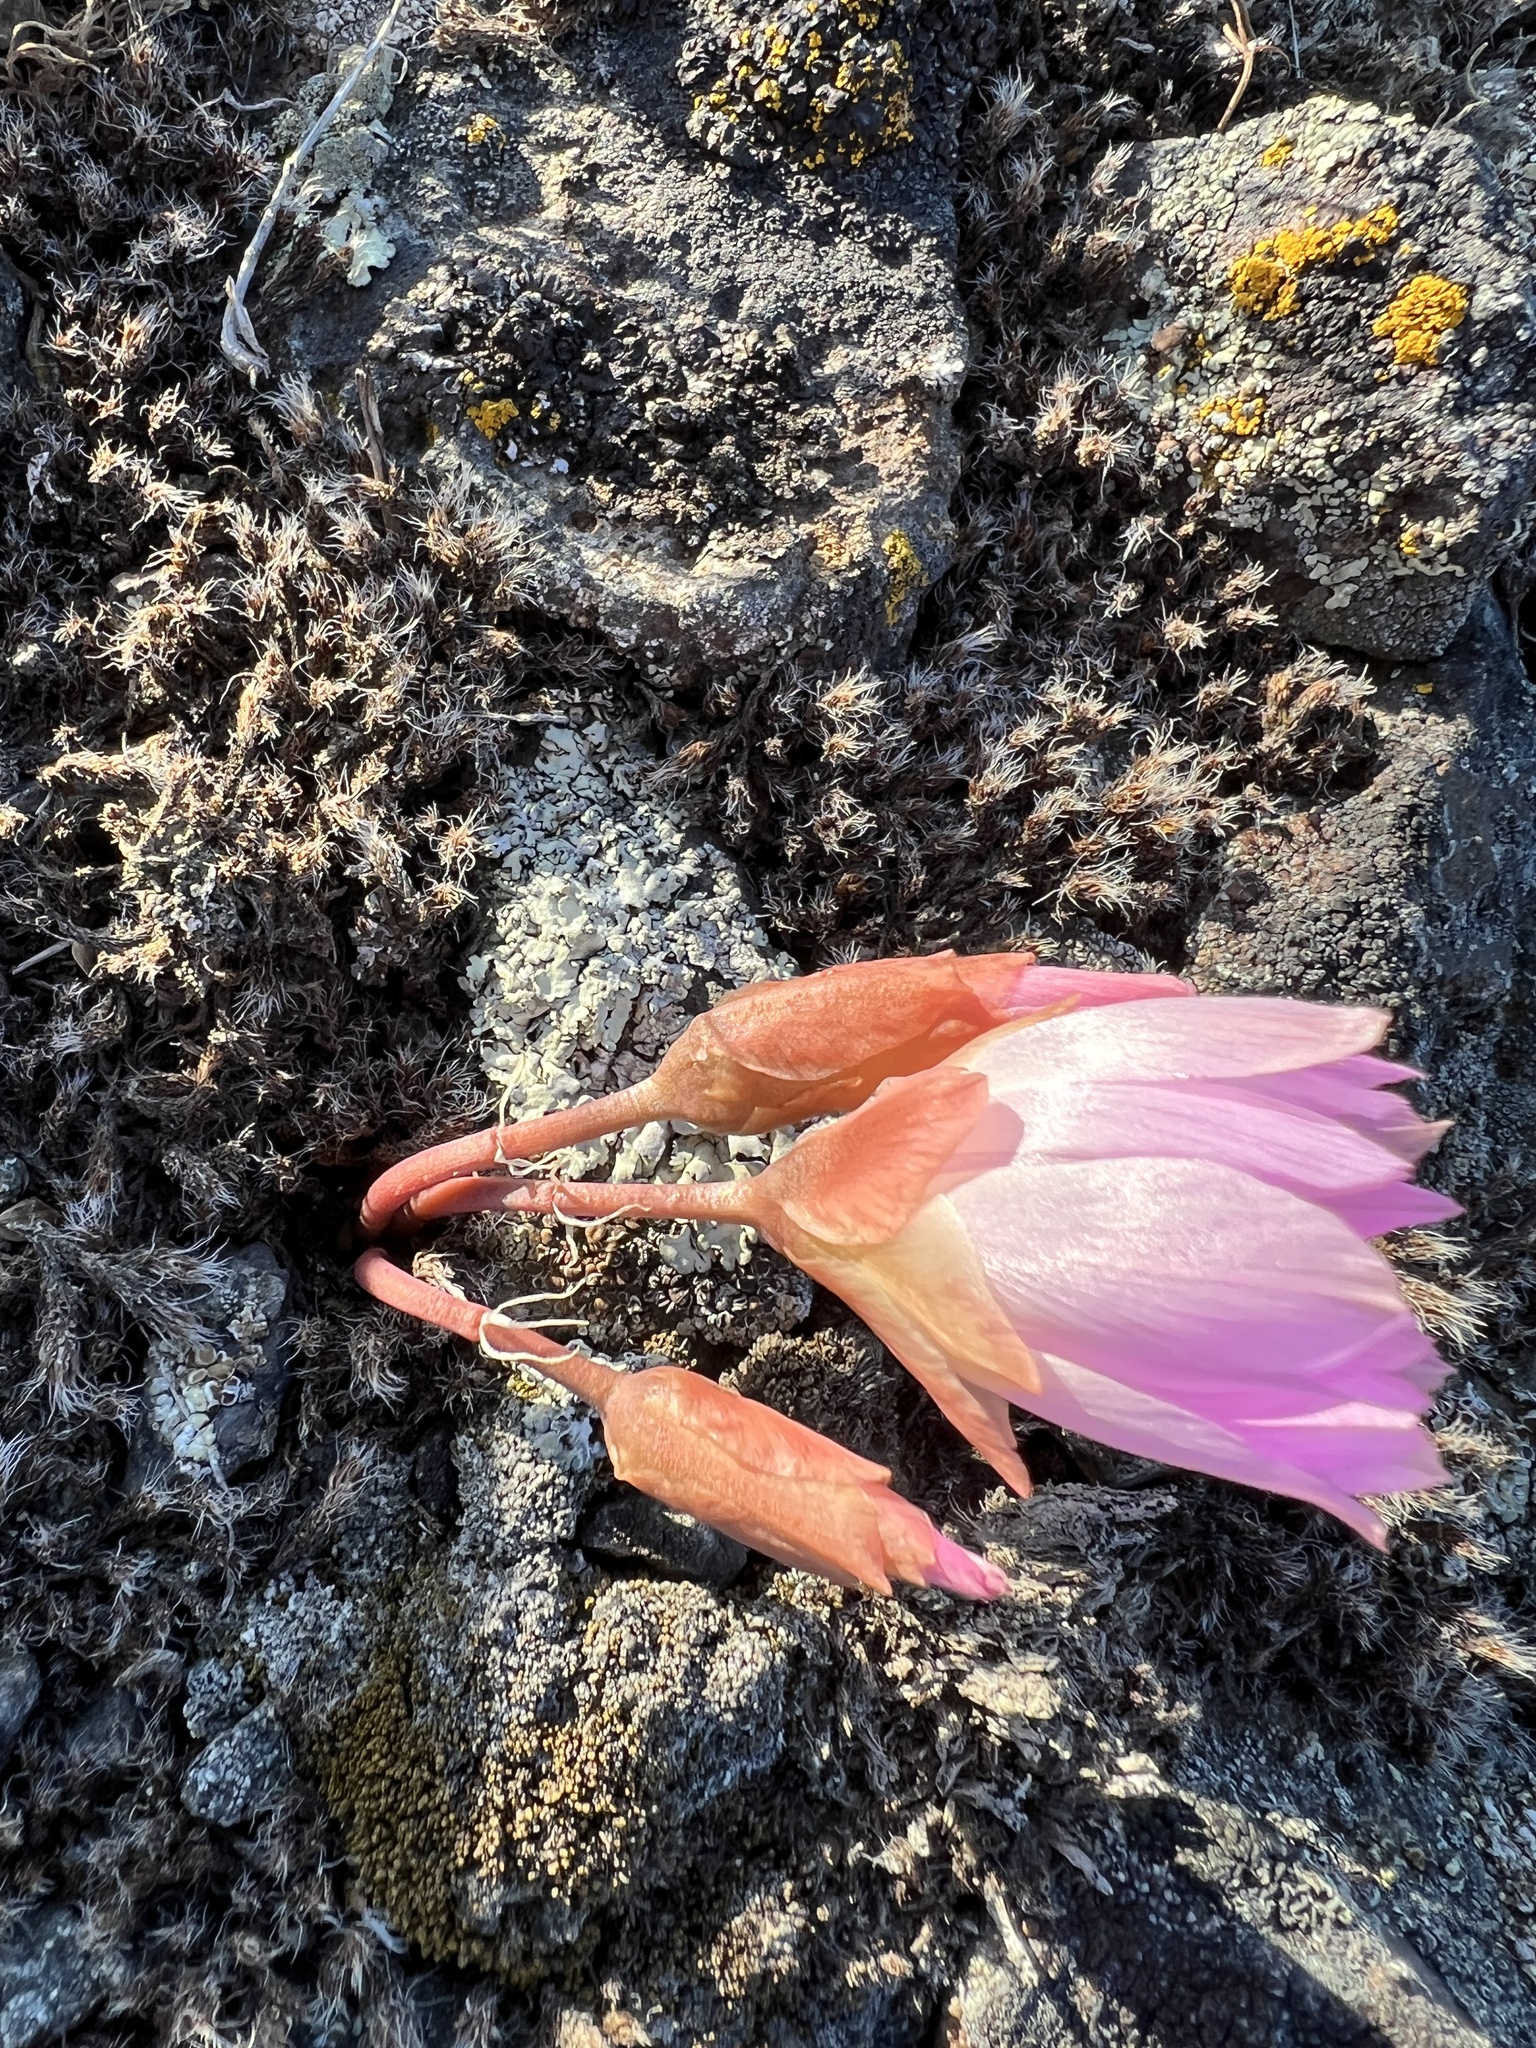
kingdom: Plantae
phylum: Tracheophyta
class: Magnoliopsida
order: Caryophyllales
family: Montiaceae
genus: Lewisia
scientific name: Lewisia rediviva
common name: Bitter-root
